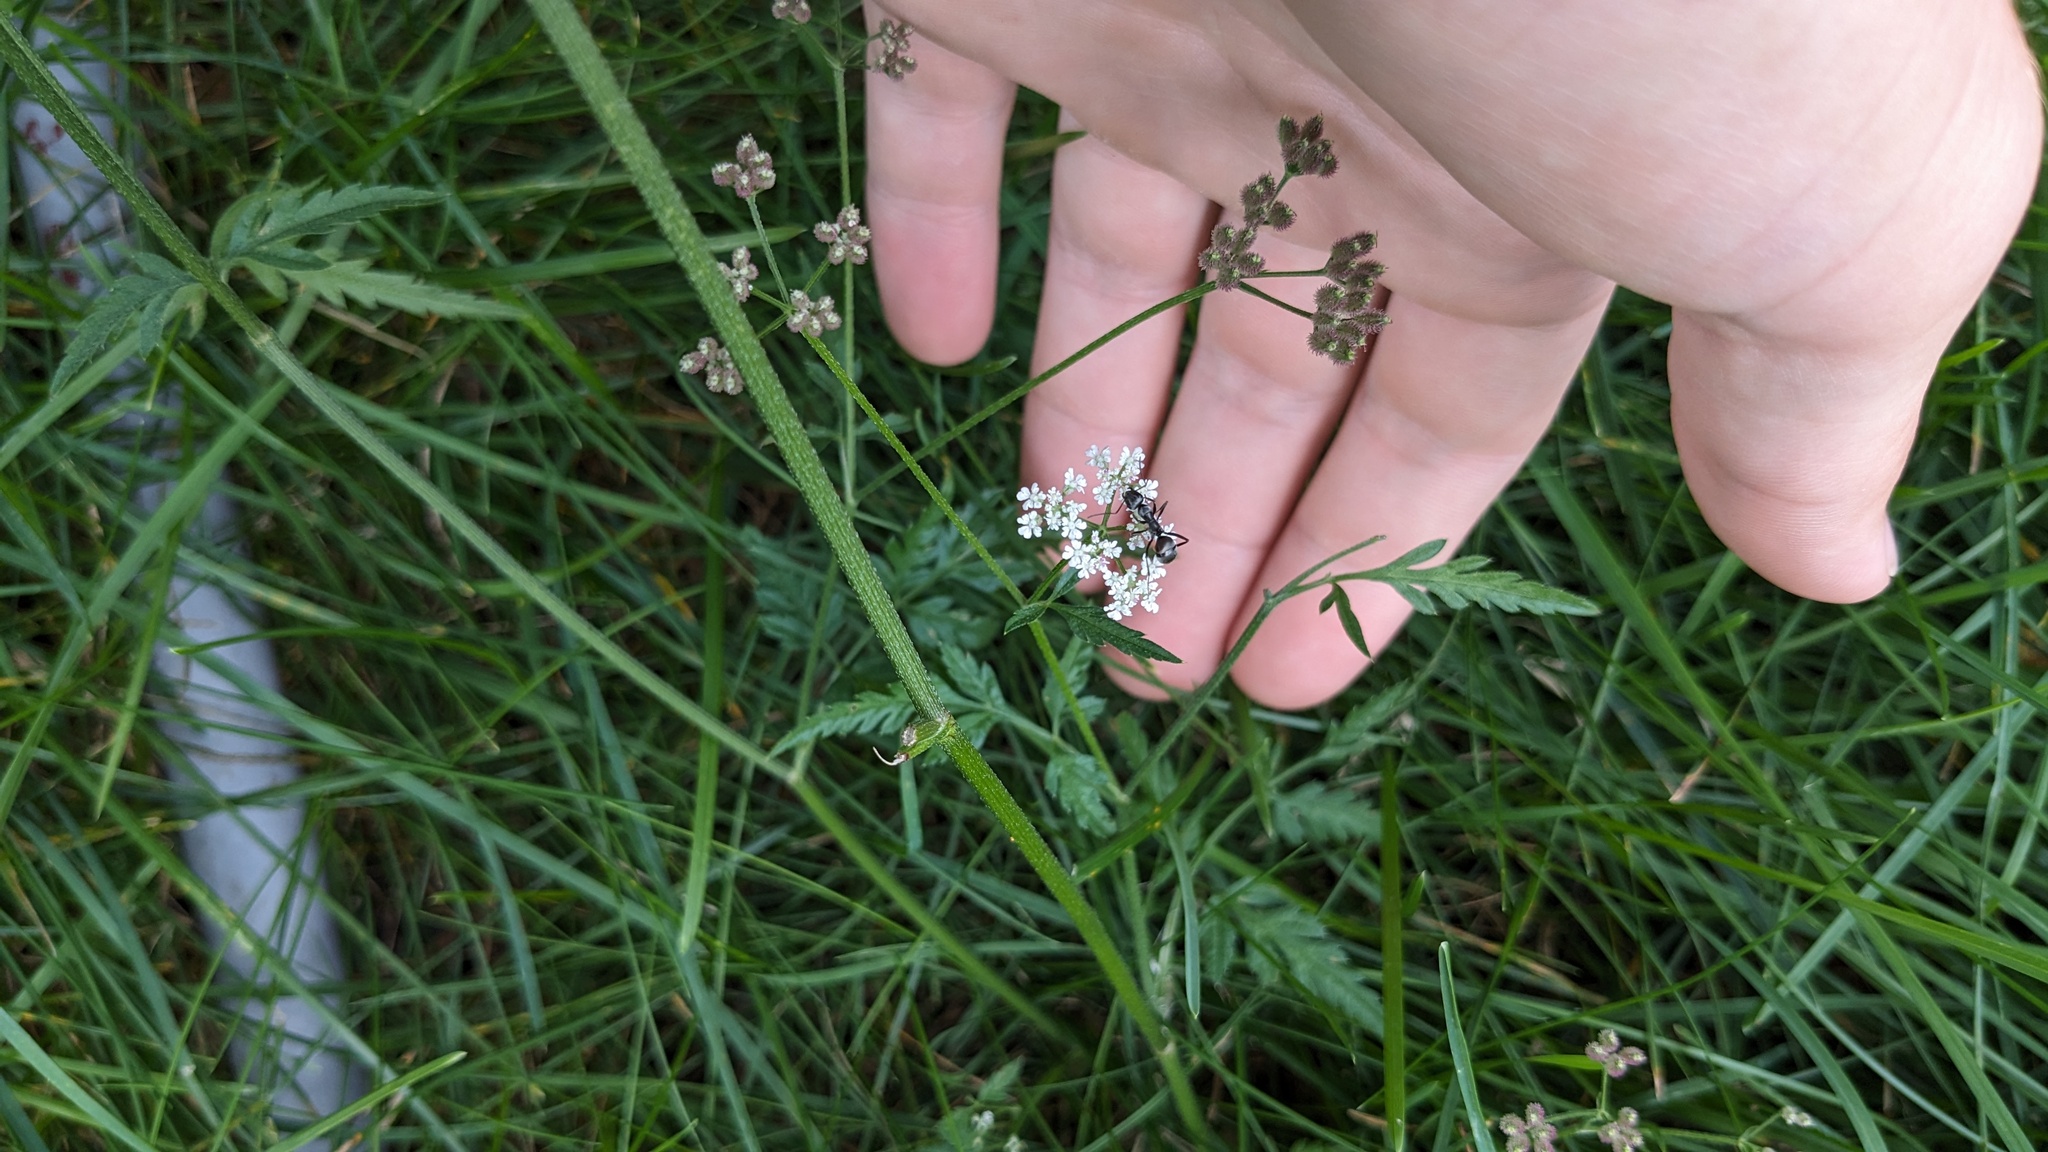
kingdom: Plantae
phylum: Tracheophyta
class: Magnoliopsida
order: Apiales
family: Apiaceae
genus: Torilis
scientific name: Torilis japonica
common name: Upright hedge-parsley
